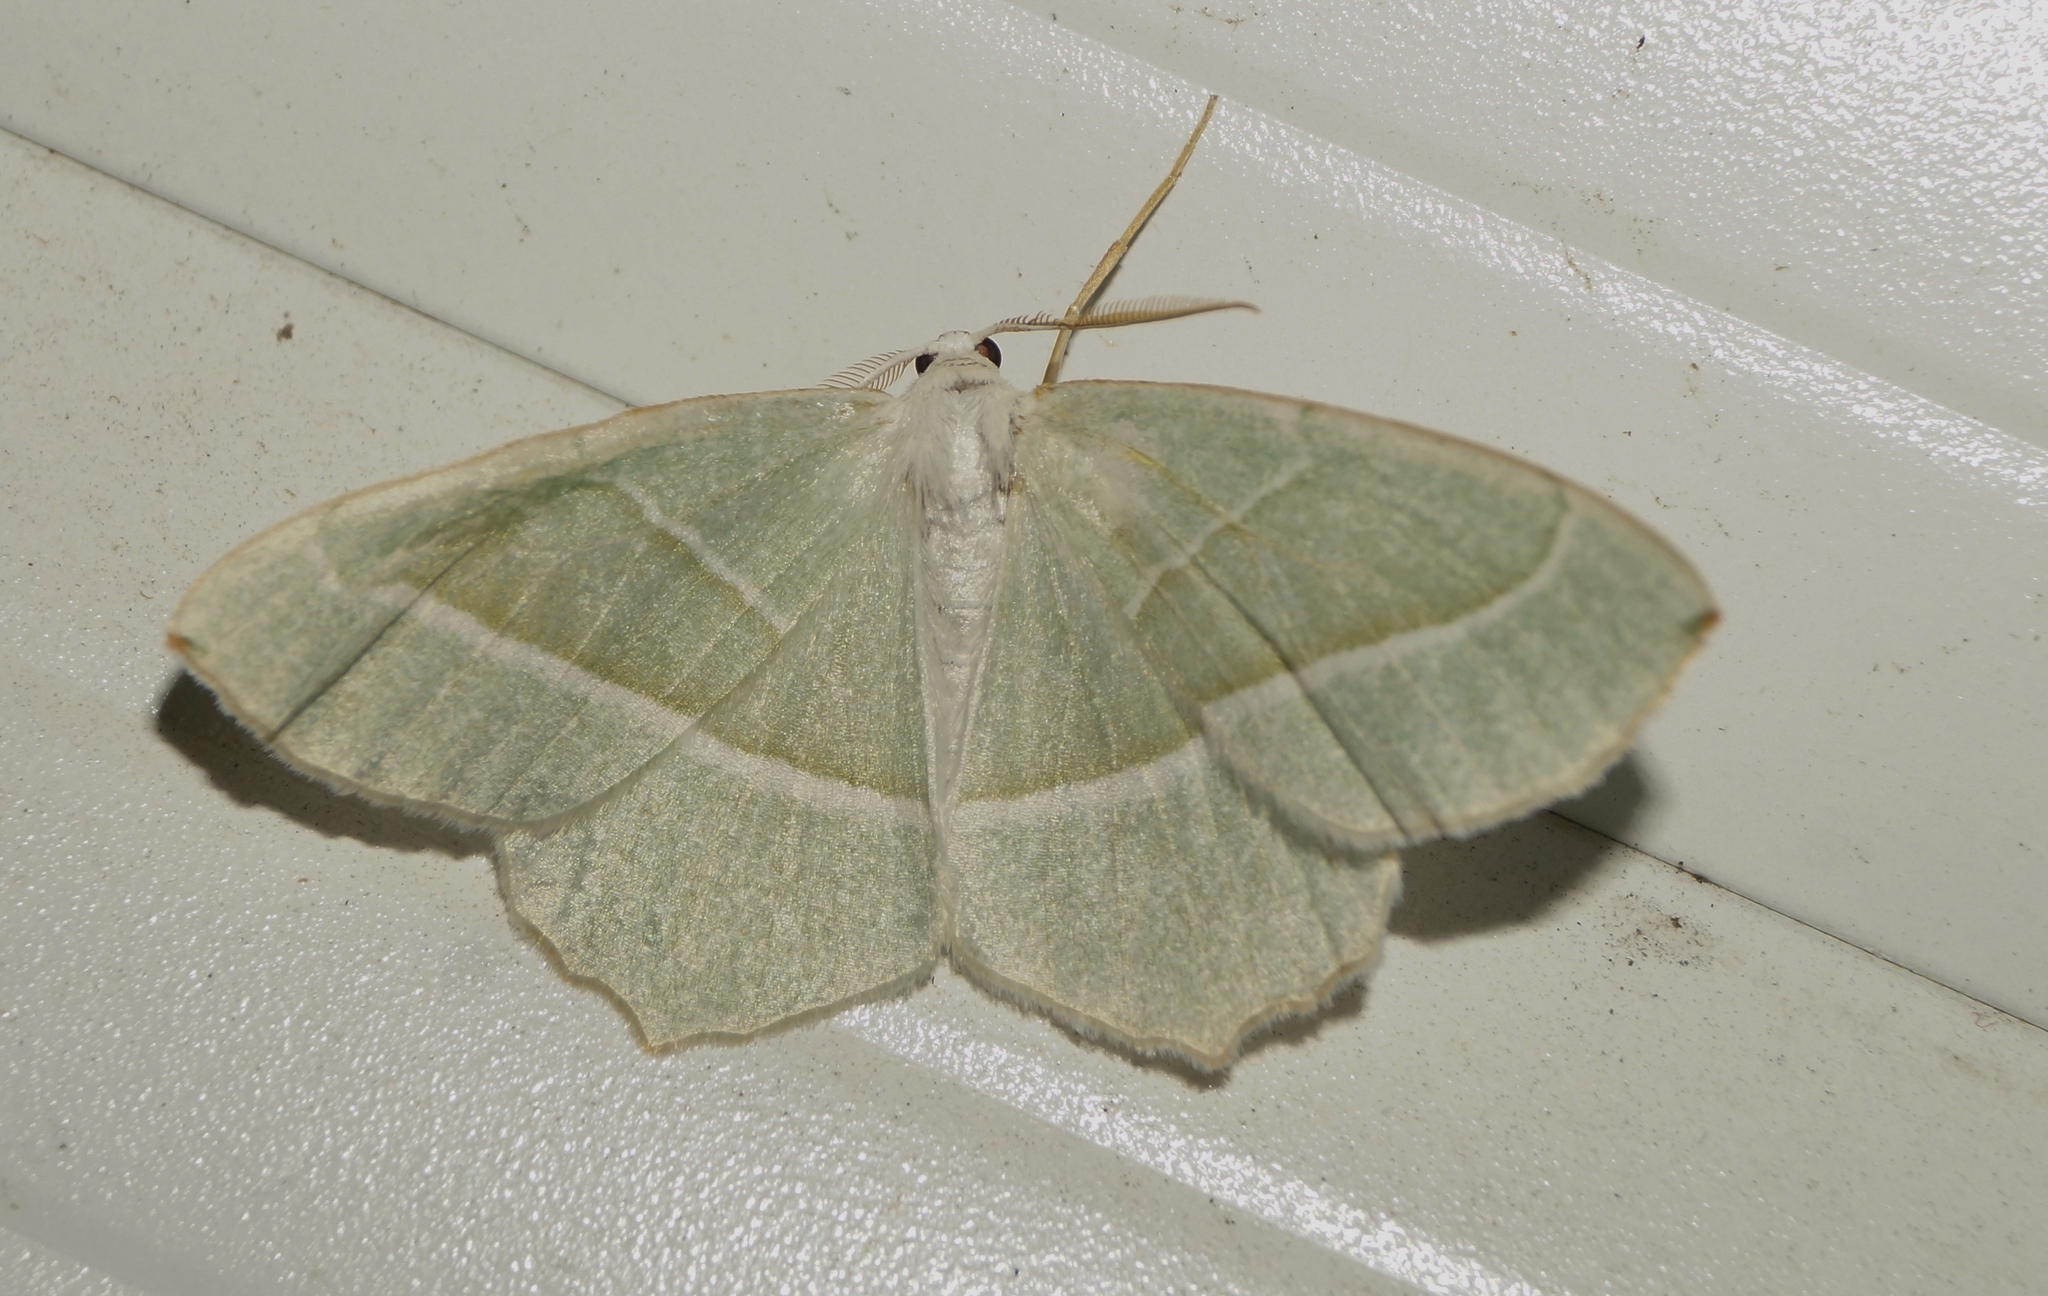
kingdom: Animalia
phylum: Arthropoda
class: Insecta
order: Lepidoptera
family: Geometridae
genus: Campaea
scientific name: Campaea margaritaria
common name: Light emerald
